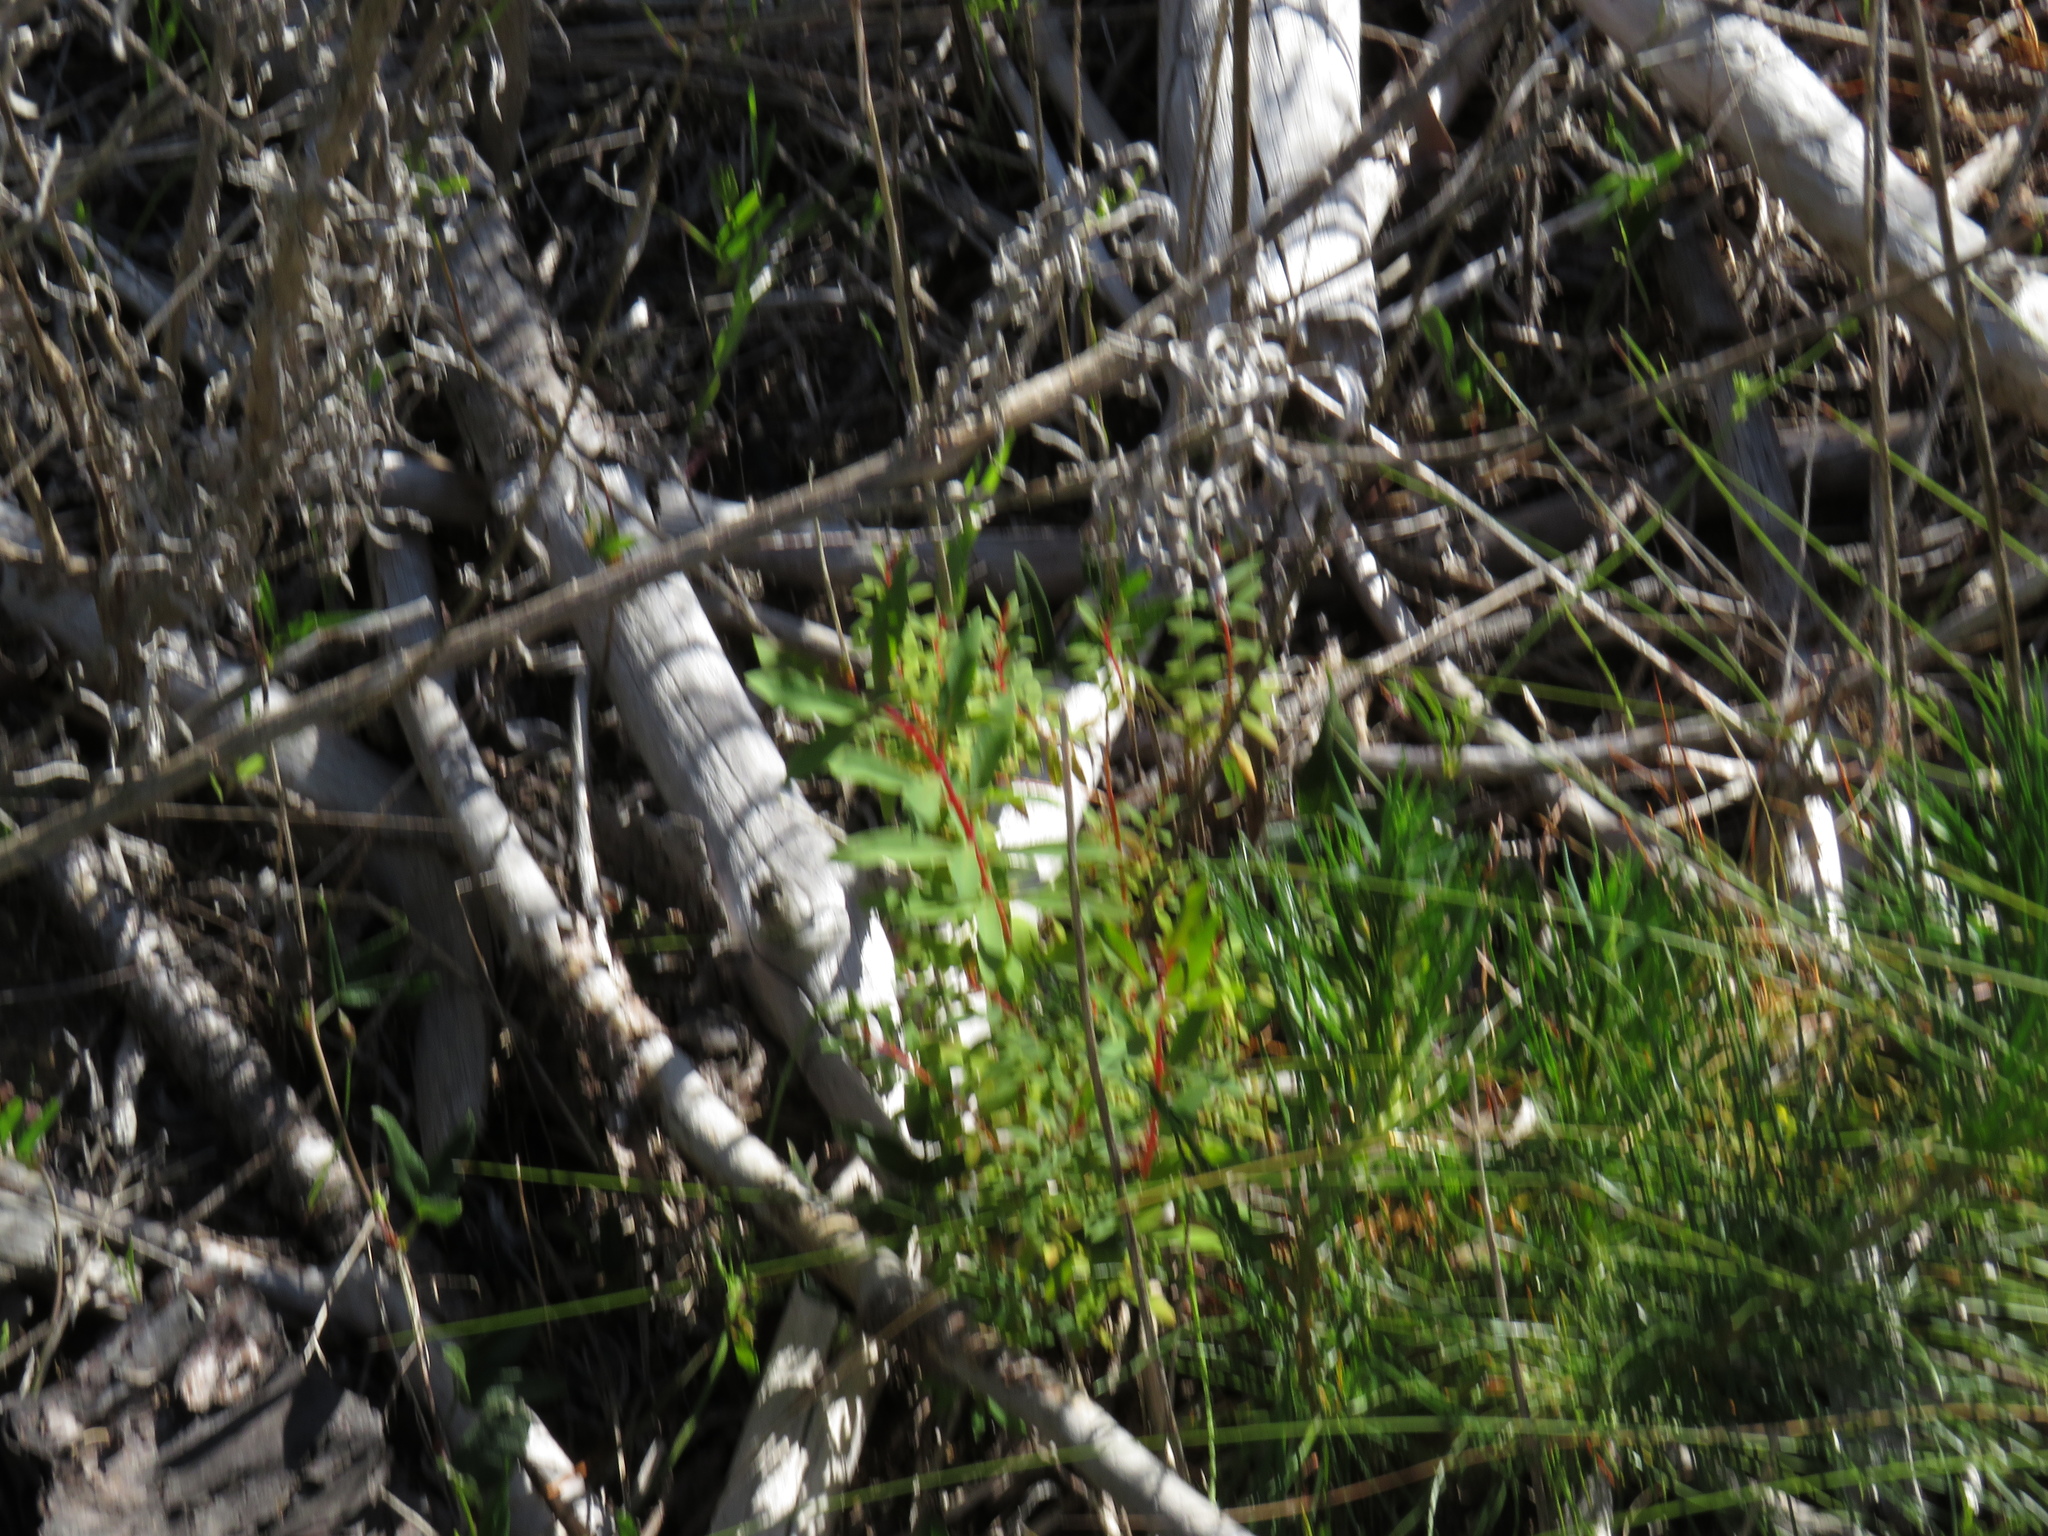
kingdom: Plantae
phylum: Tracheophyta
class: Magnoliopsida
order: Malpighiales
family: Hypericaceae
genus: Hypericum
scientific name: Hypericum canariense
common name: Canary island st. johnswort
